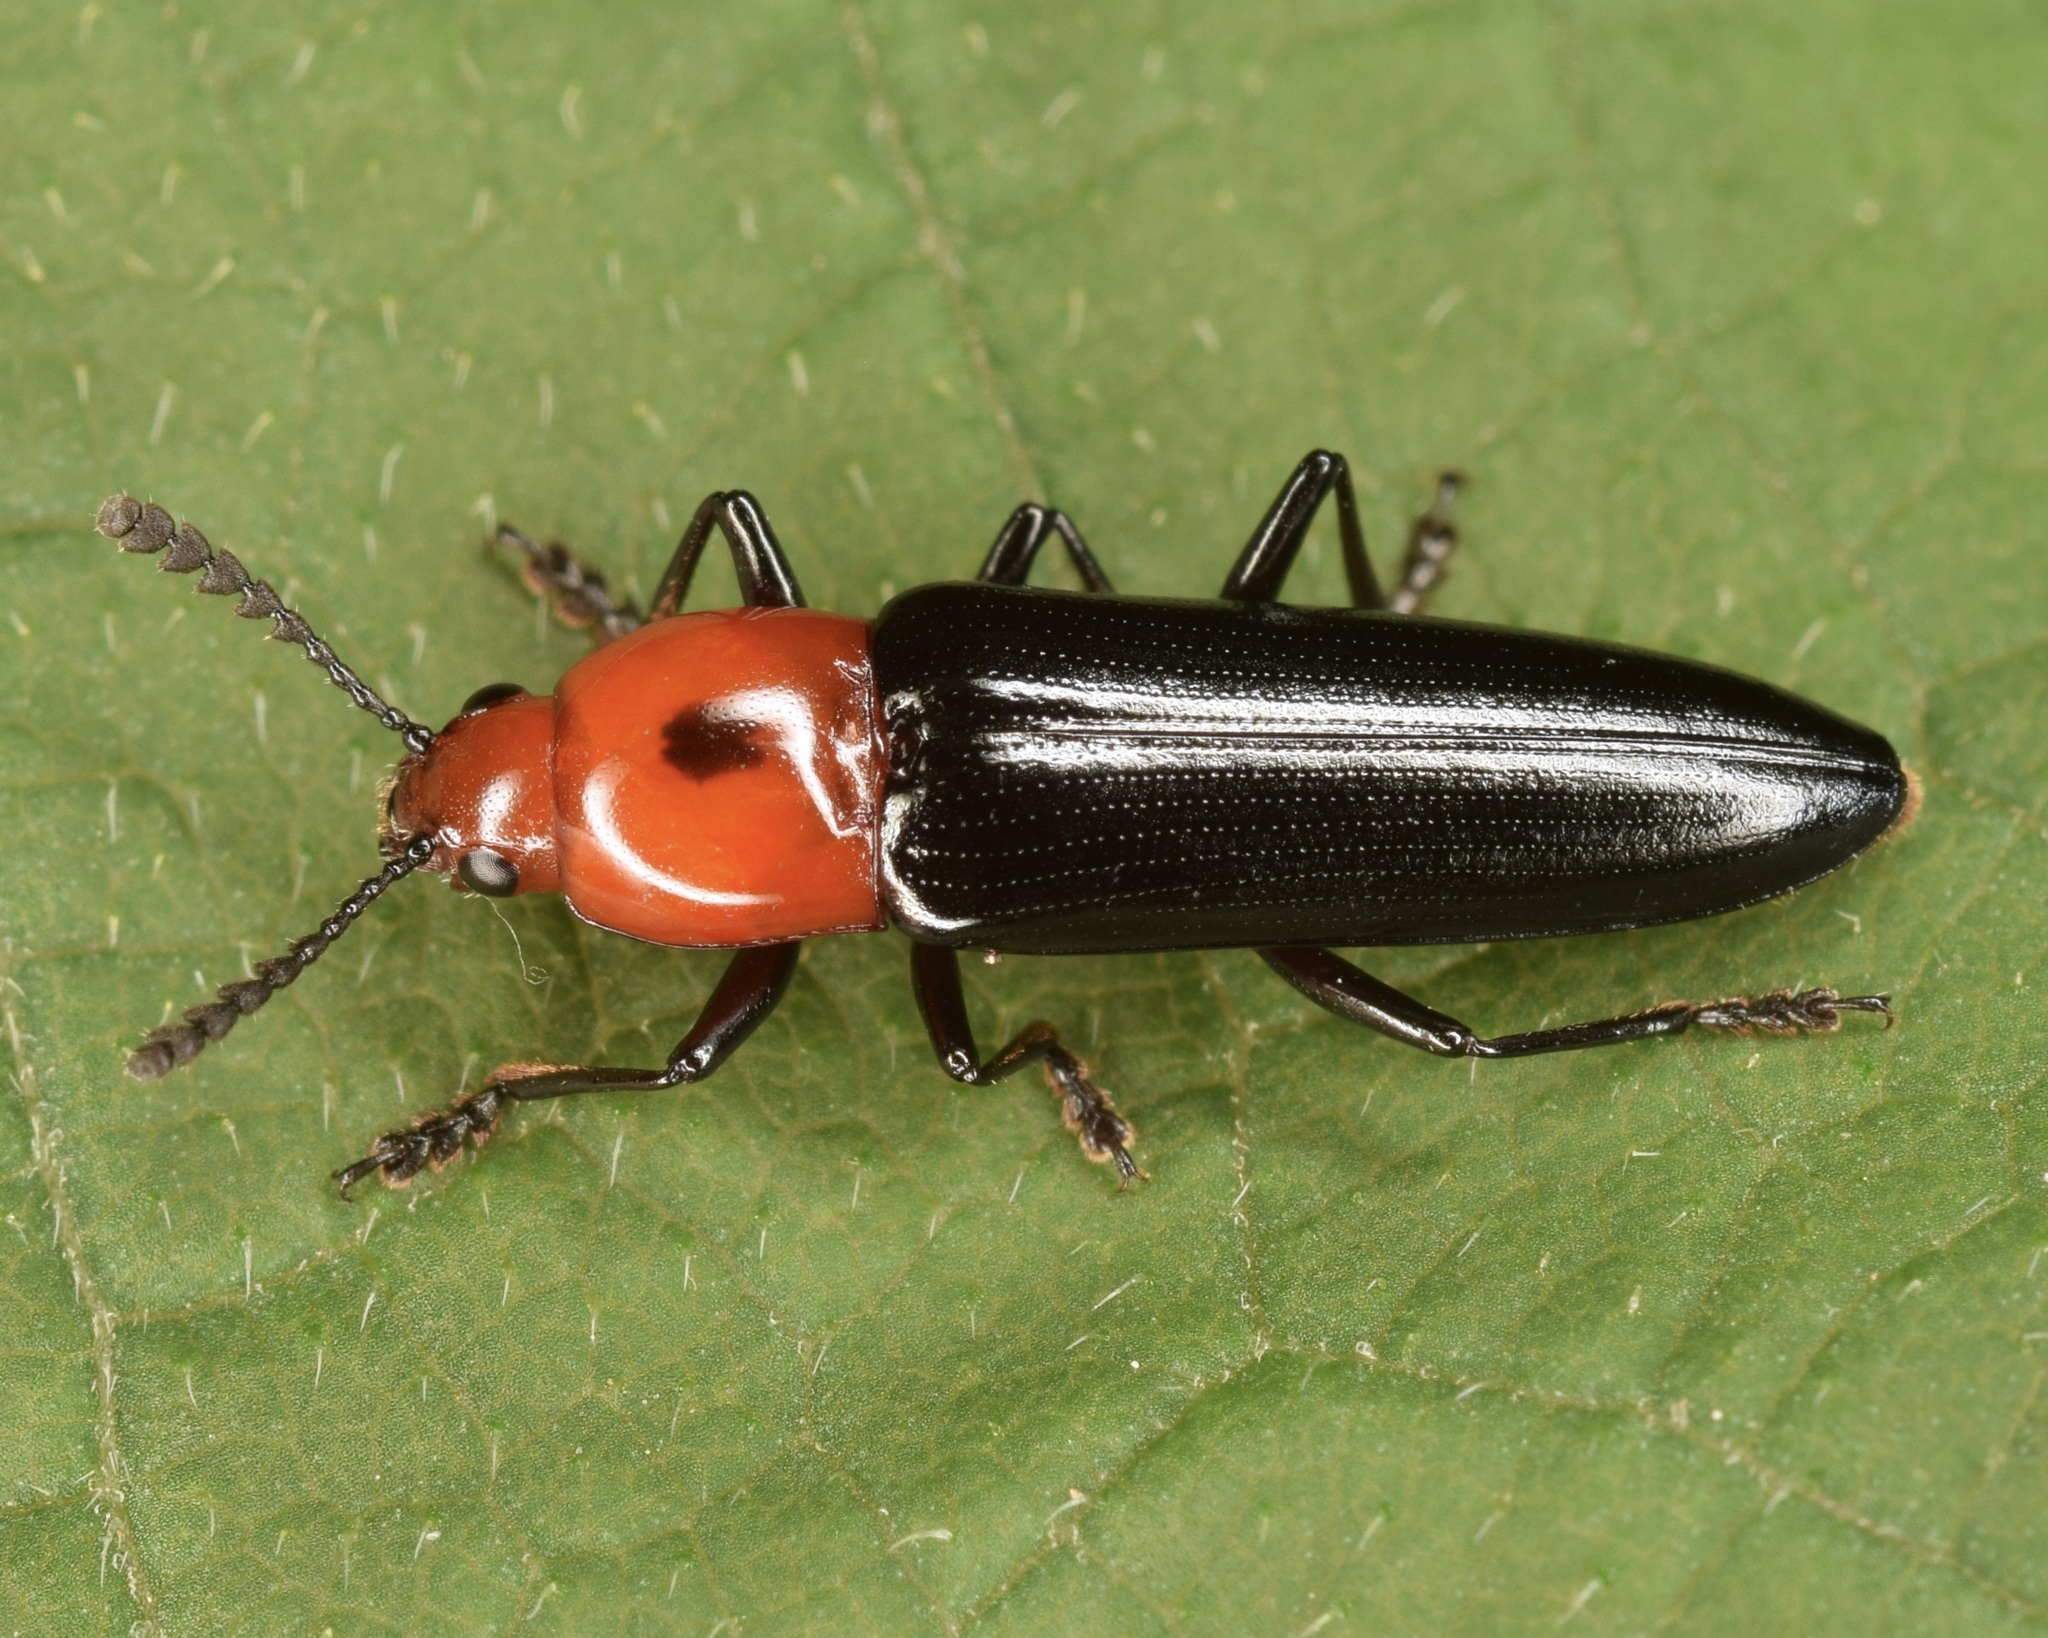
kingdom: Animalia
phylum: Arthropoda
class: Insecta
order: Coleoptera
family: Erotylidae
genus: Languria
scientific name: Languria bicolor
